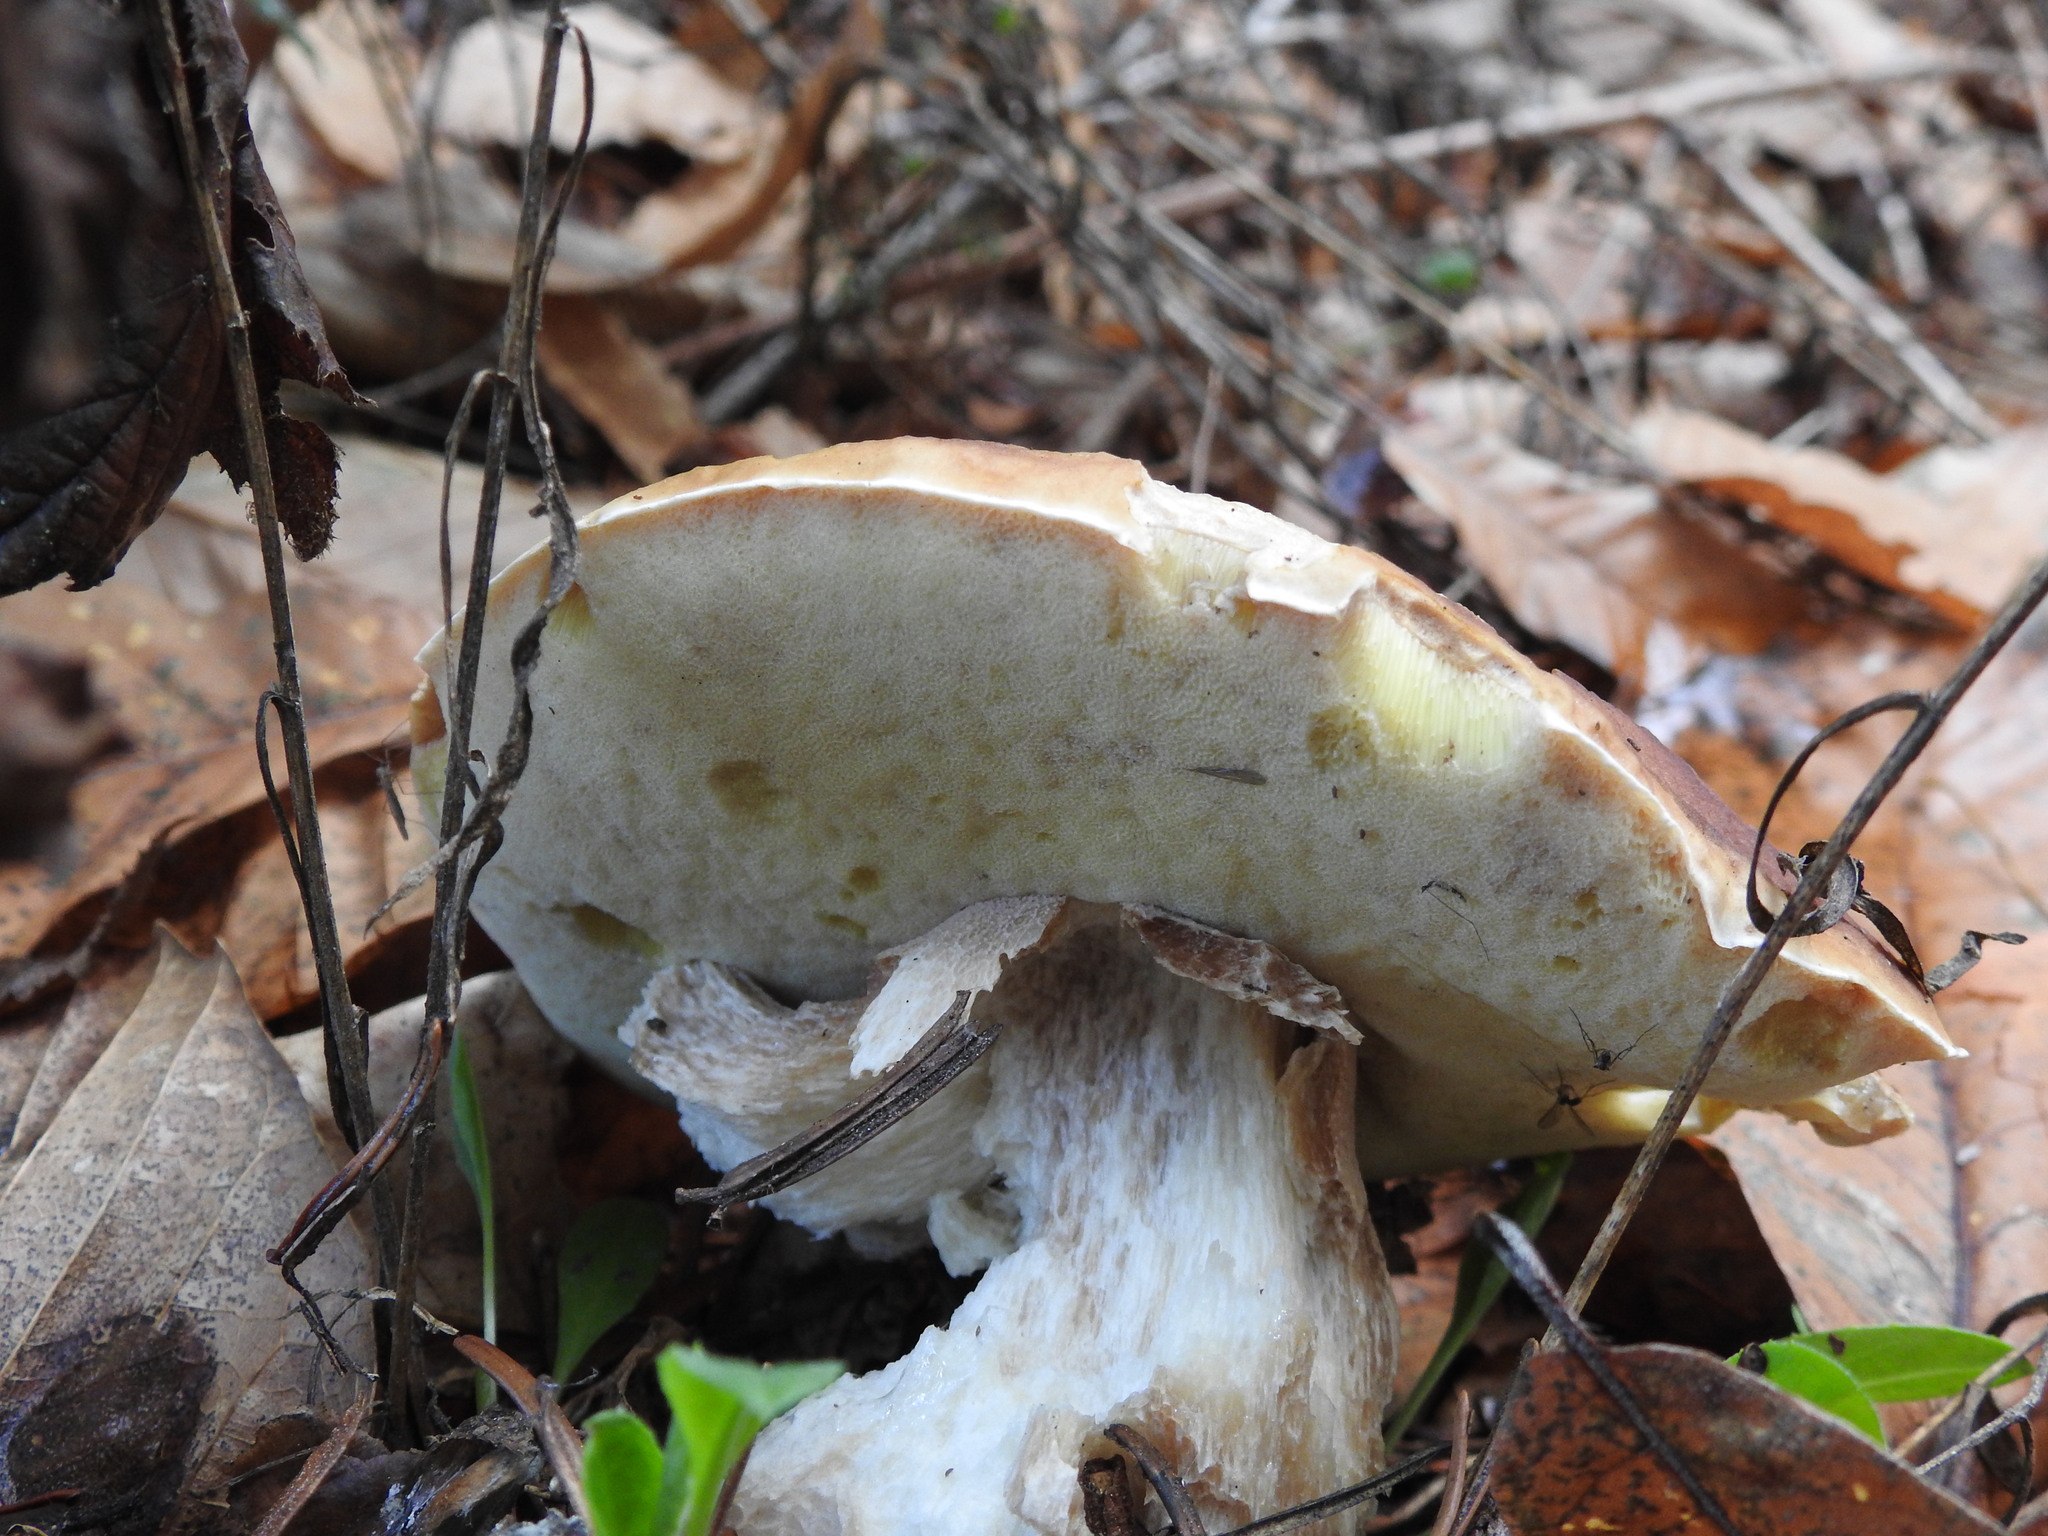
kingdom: Fungi
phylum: Basidiomycota
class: Agaricomycetes
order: Boletales
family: Boletaceae
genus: Boletus
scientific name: Boletus edulis
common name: Cep
